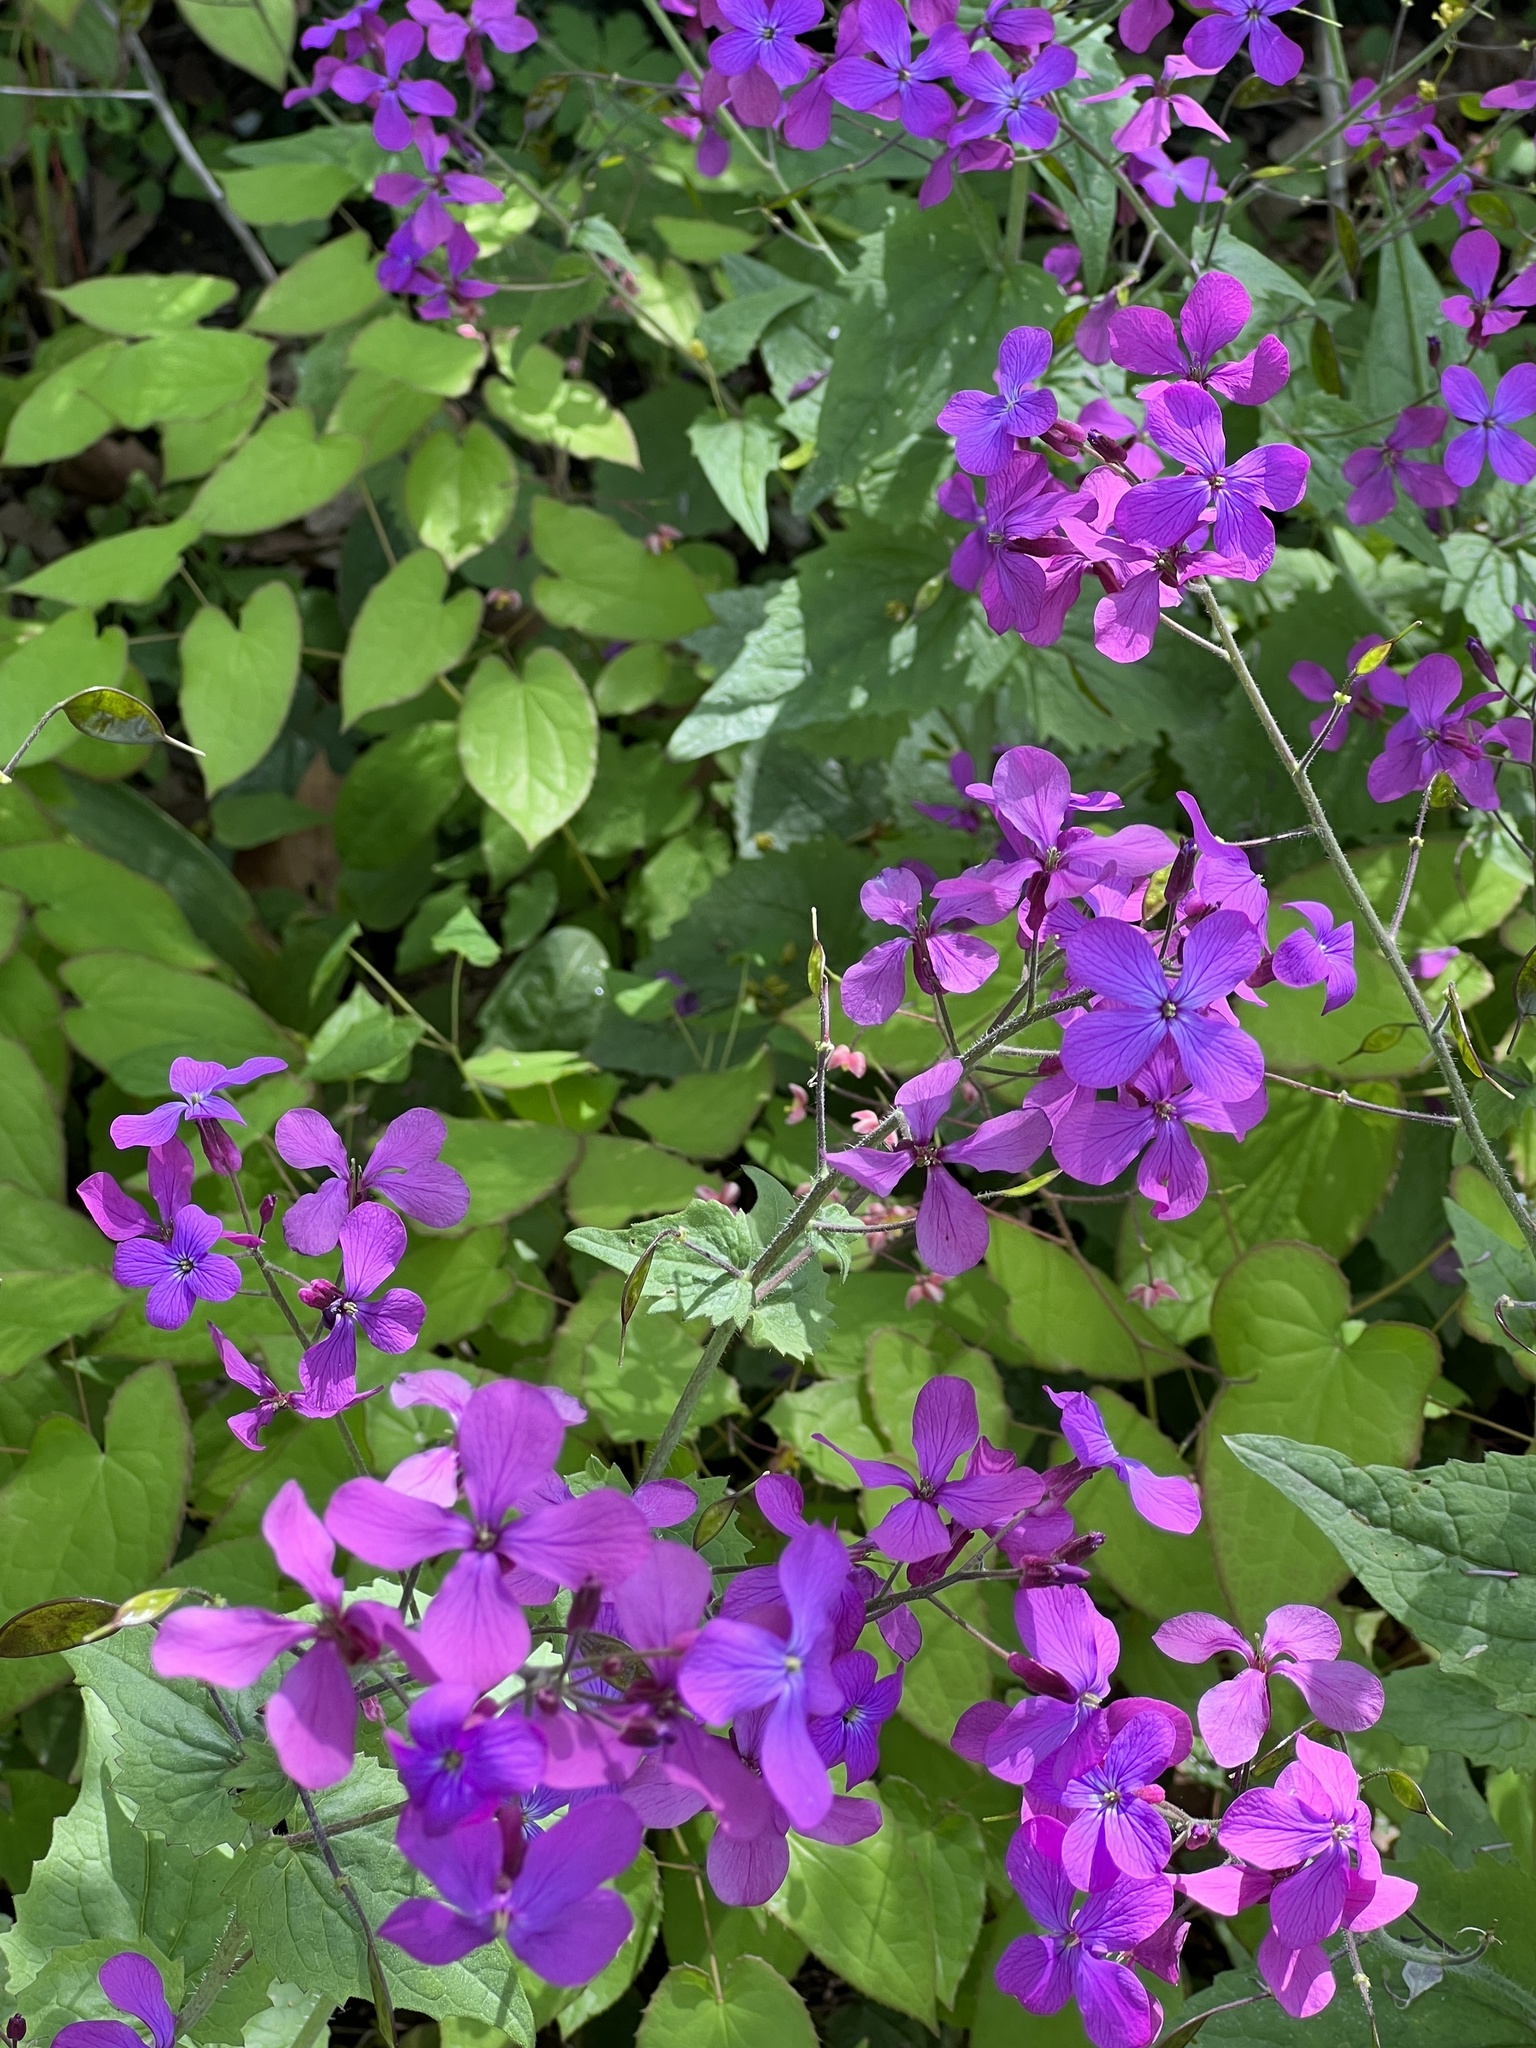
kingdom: Plantae
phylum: Tracheophyta
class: Magnoliopsida
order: Brassicales
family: Brassicaceae
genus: Lunaria
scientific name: Lunaria annua
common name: Honesty
